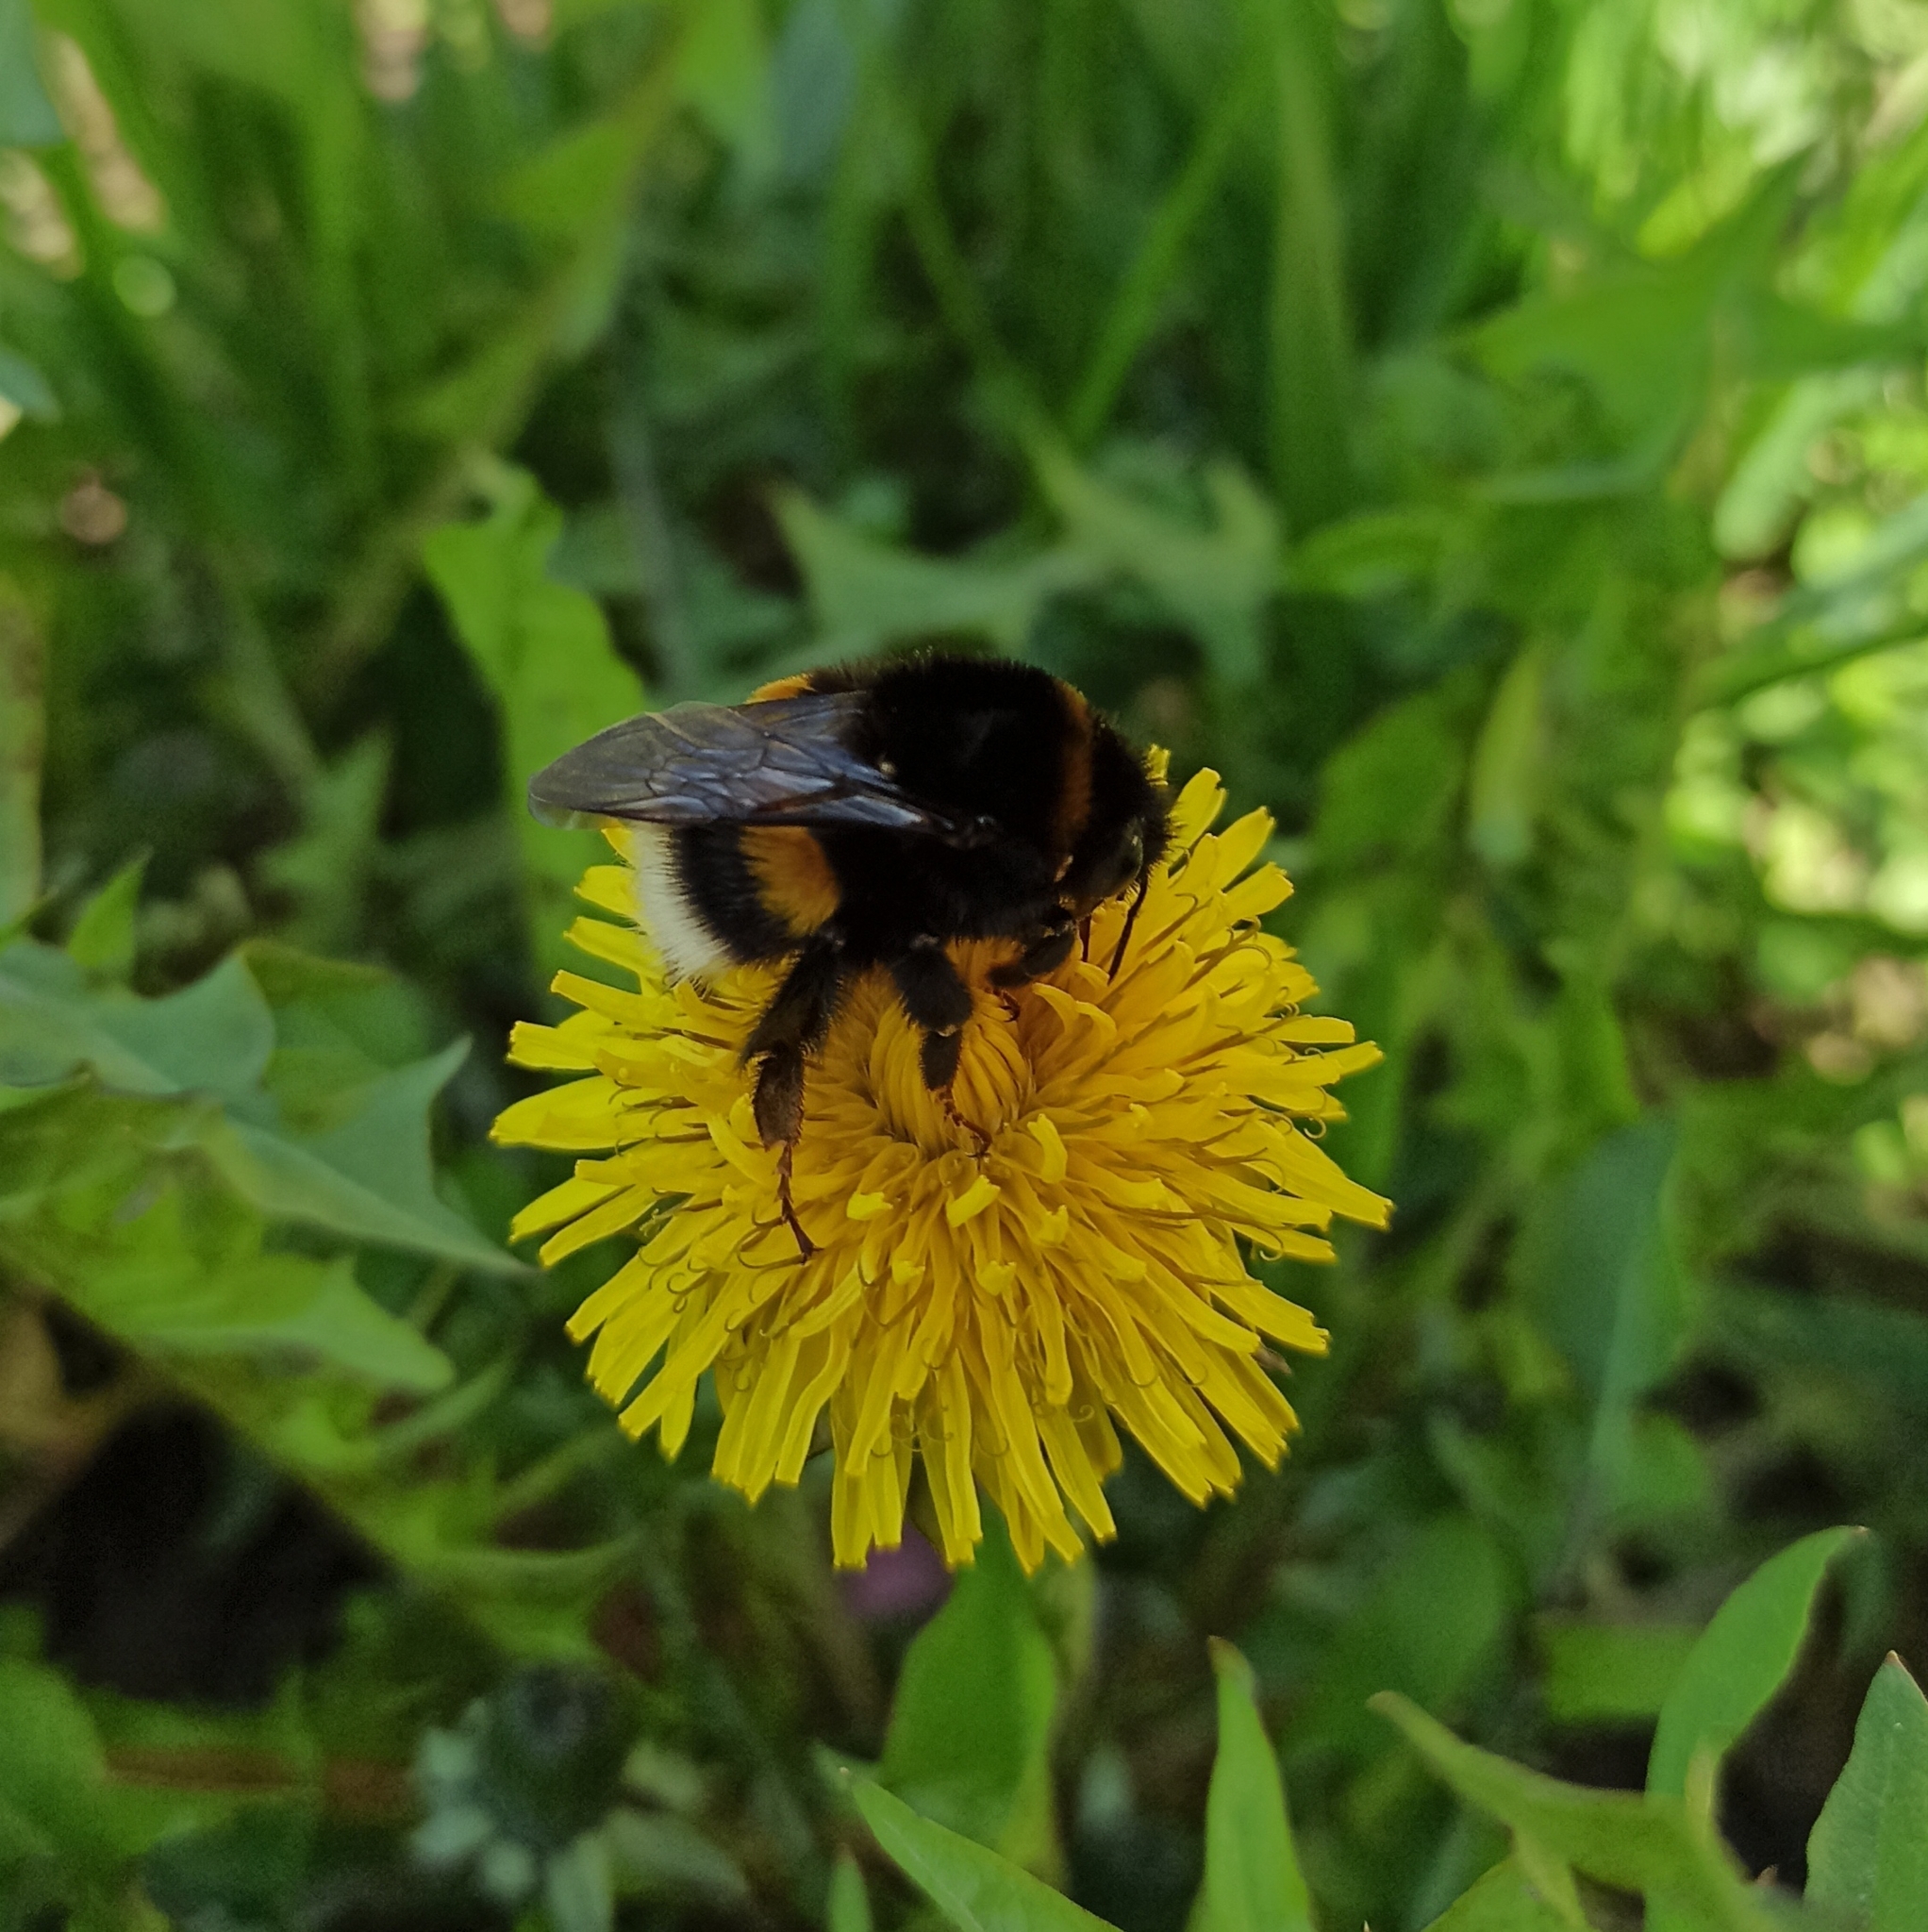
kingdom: Animalia
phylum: Arthropoda
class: Insecta
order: Hymenoptera
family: Apidae
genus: Bombus
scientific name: Bombus terrestris
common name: Buff-tailed bumblebee
